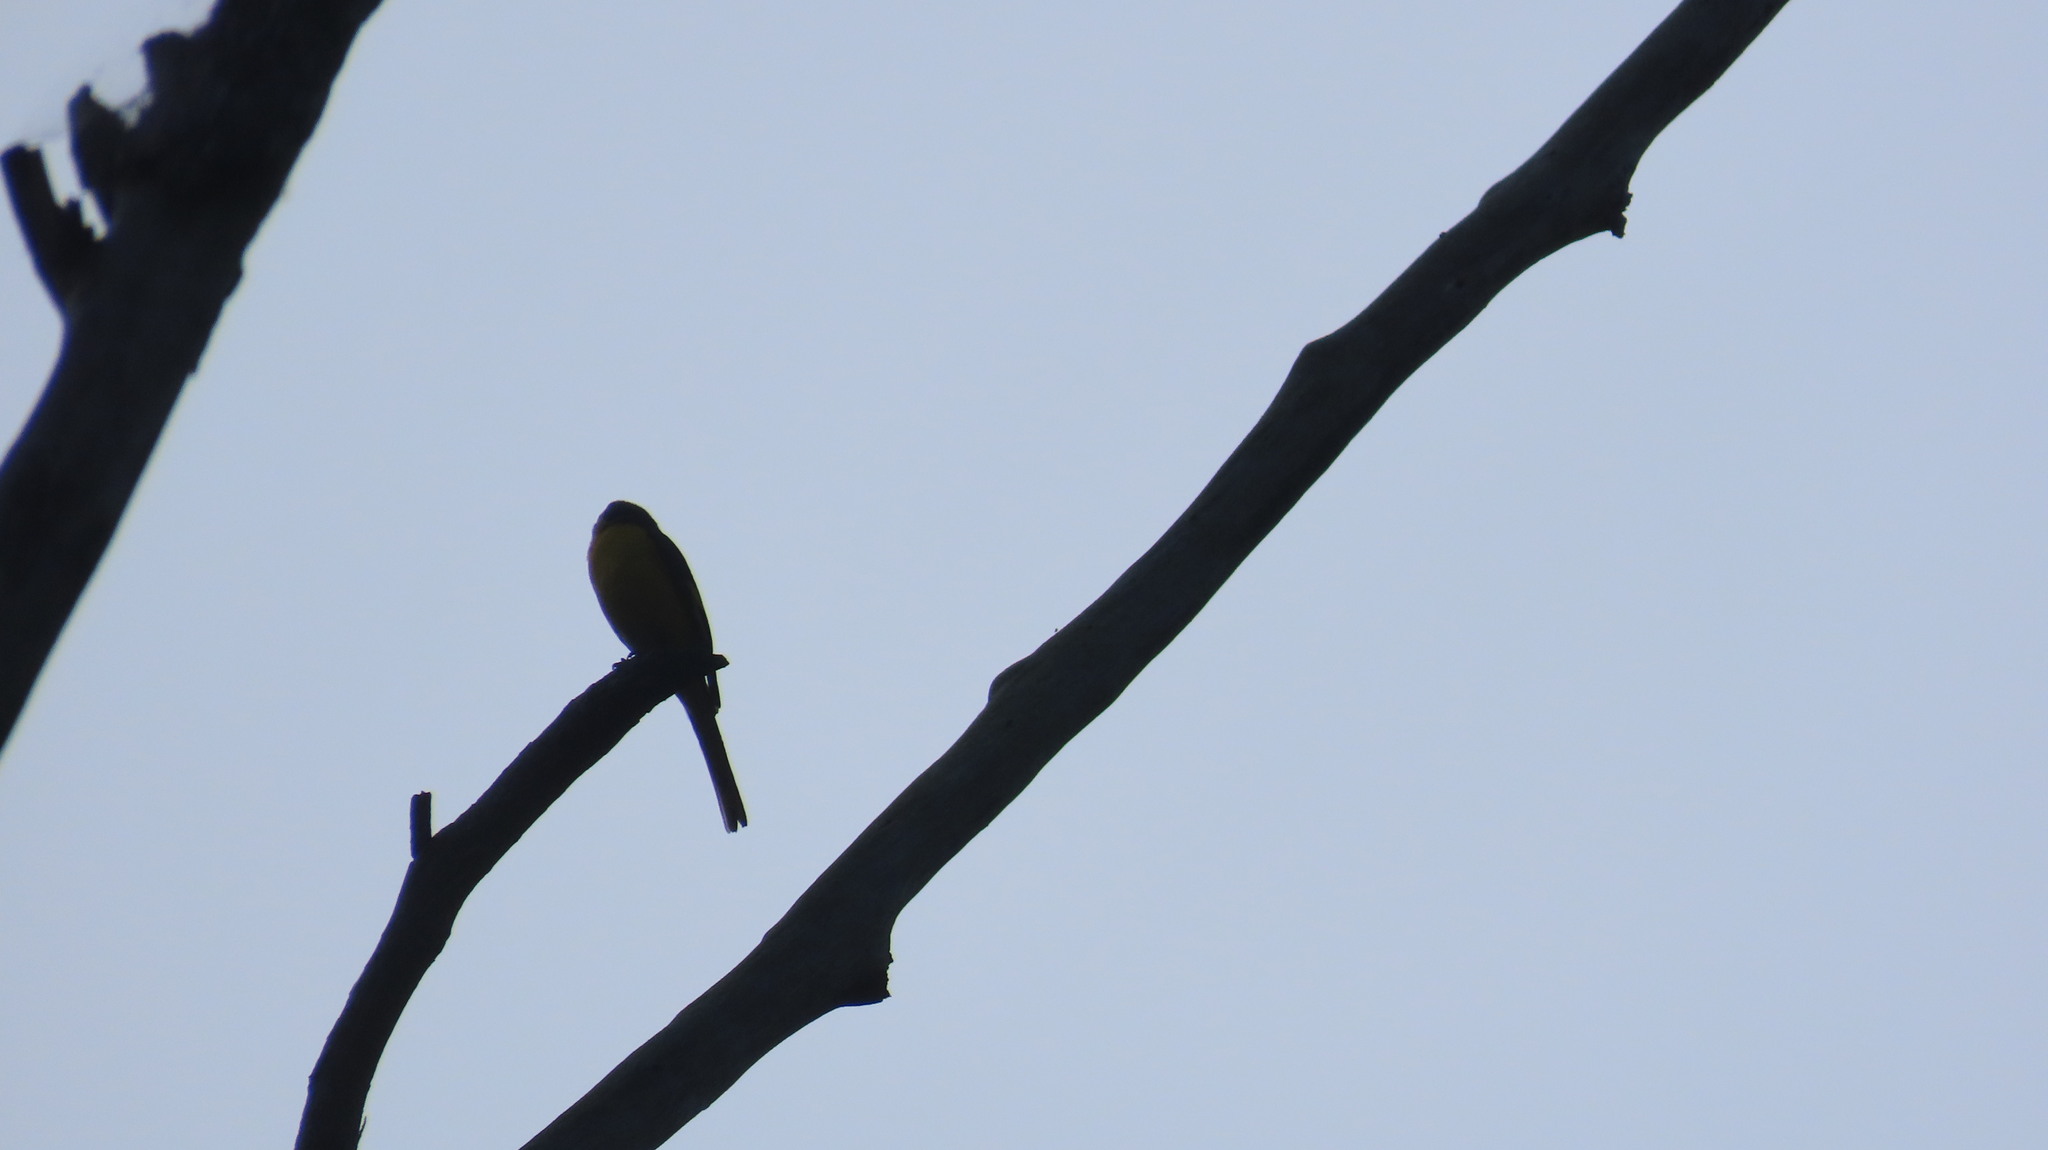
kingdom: Animalia
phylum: Chordata
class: Aves
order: Passeriformes
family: Campephagidae
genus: Pericrocotus
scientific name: Pericrocotus flammeus
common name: Orange minivet
